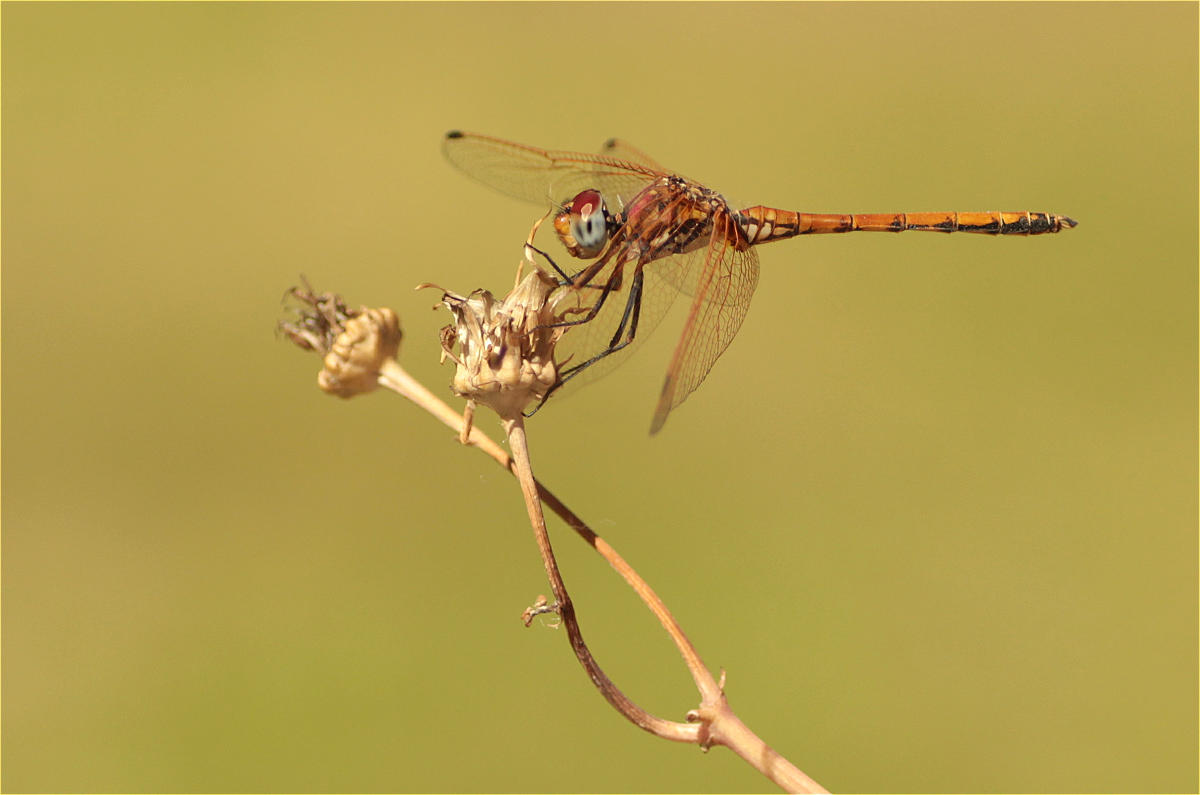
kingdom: Animalia
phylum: Arthropoda
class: Insecta
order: Odonata
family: Libellulidae
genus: Trithemis
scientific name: Trithemis arteriosa
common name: Red-veined dropwing
